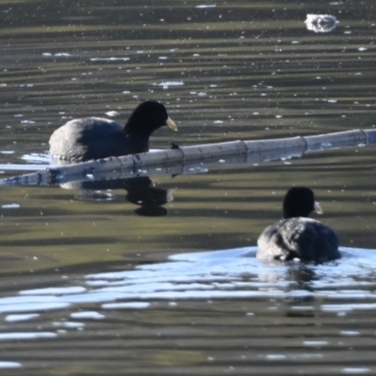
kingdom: Animalia
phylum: Chordata
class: Aves
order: Gruiformes
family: Rallidae
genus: Fulica
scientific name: Fulica leucoptera
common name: White-winged coot
